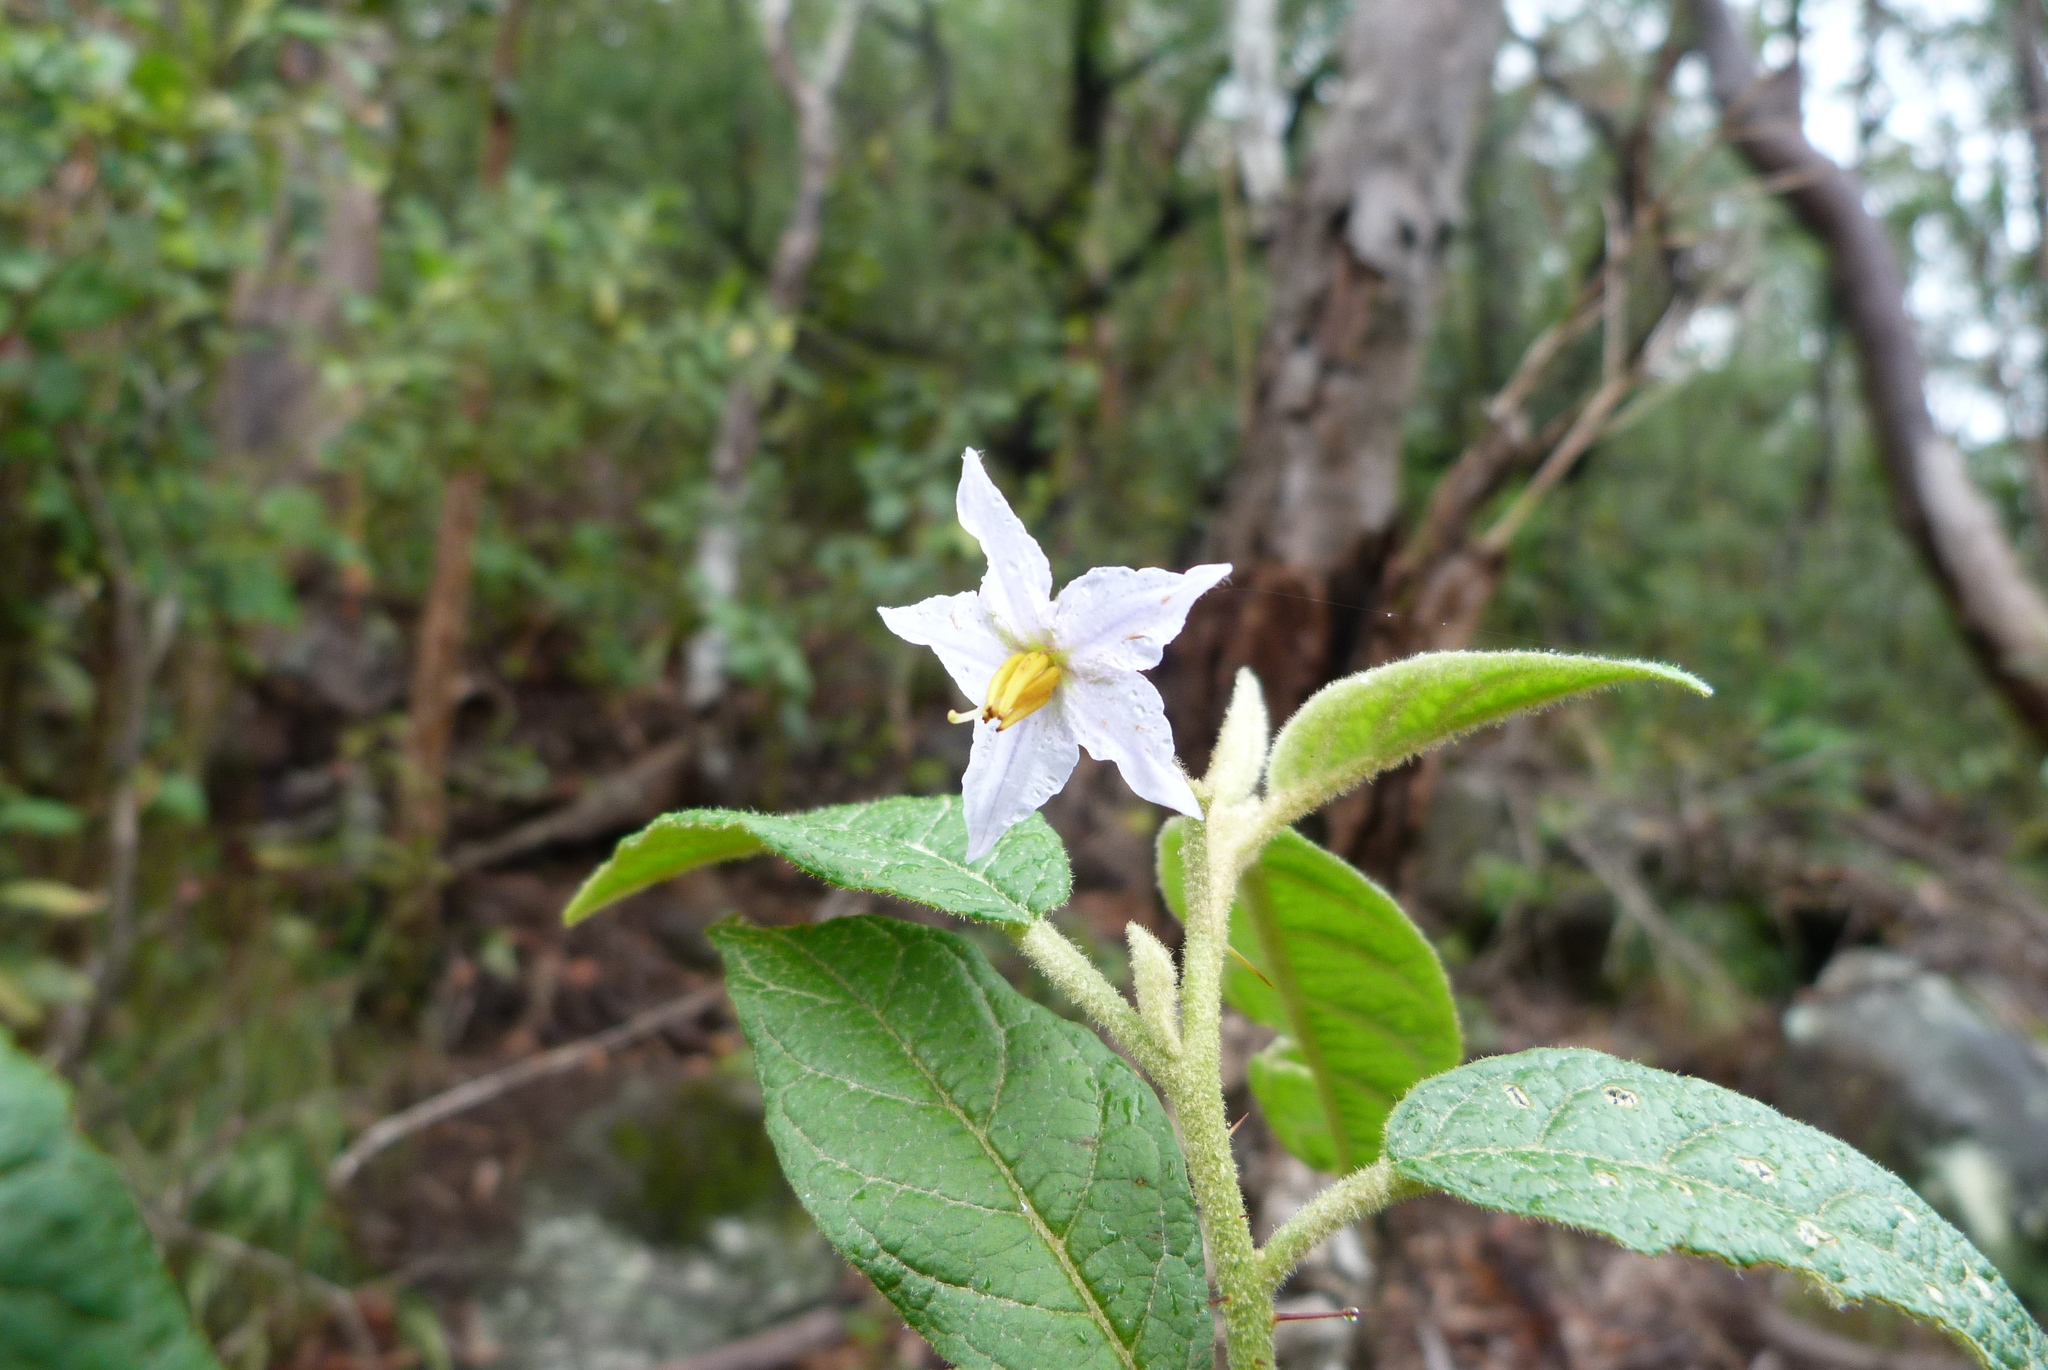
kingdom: Plantae
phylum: Tracheophyta
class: Magnoliopsida
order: Solanales
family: Solanaceae
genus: Solanum
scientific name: Solanum stelligerum
